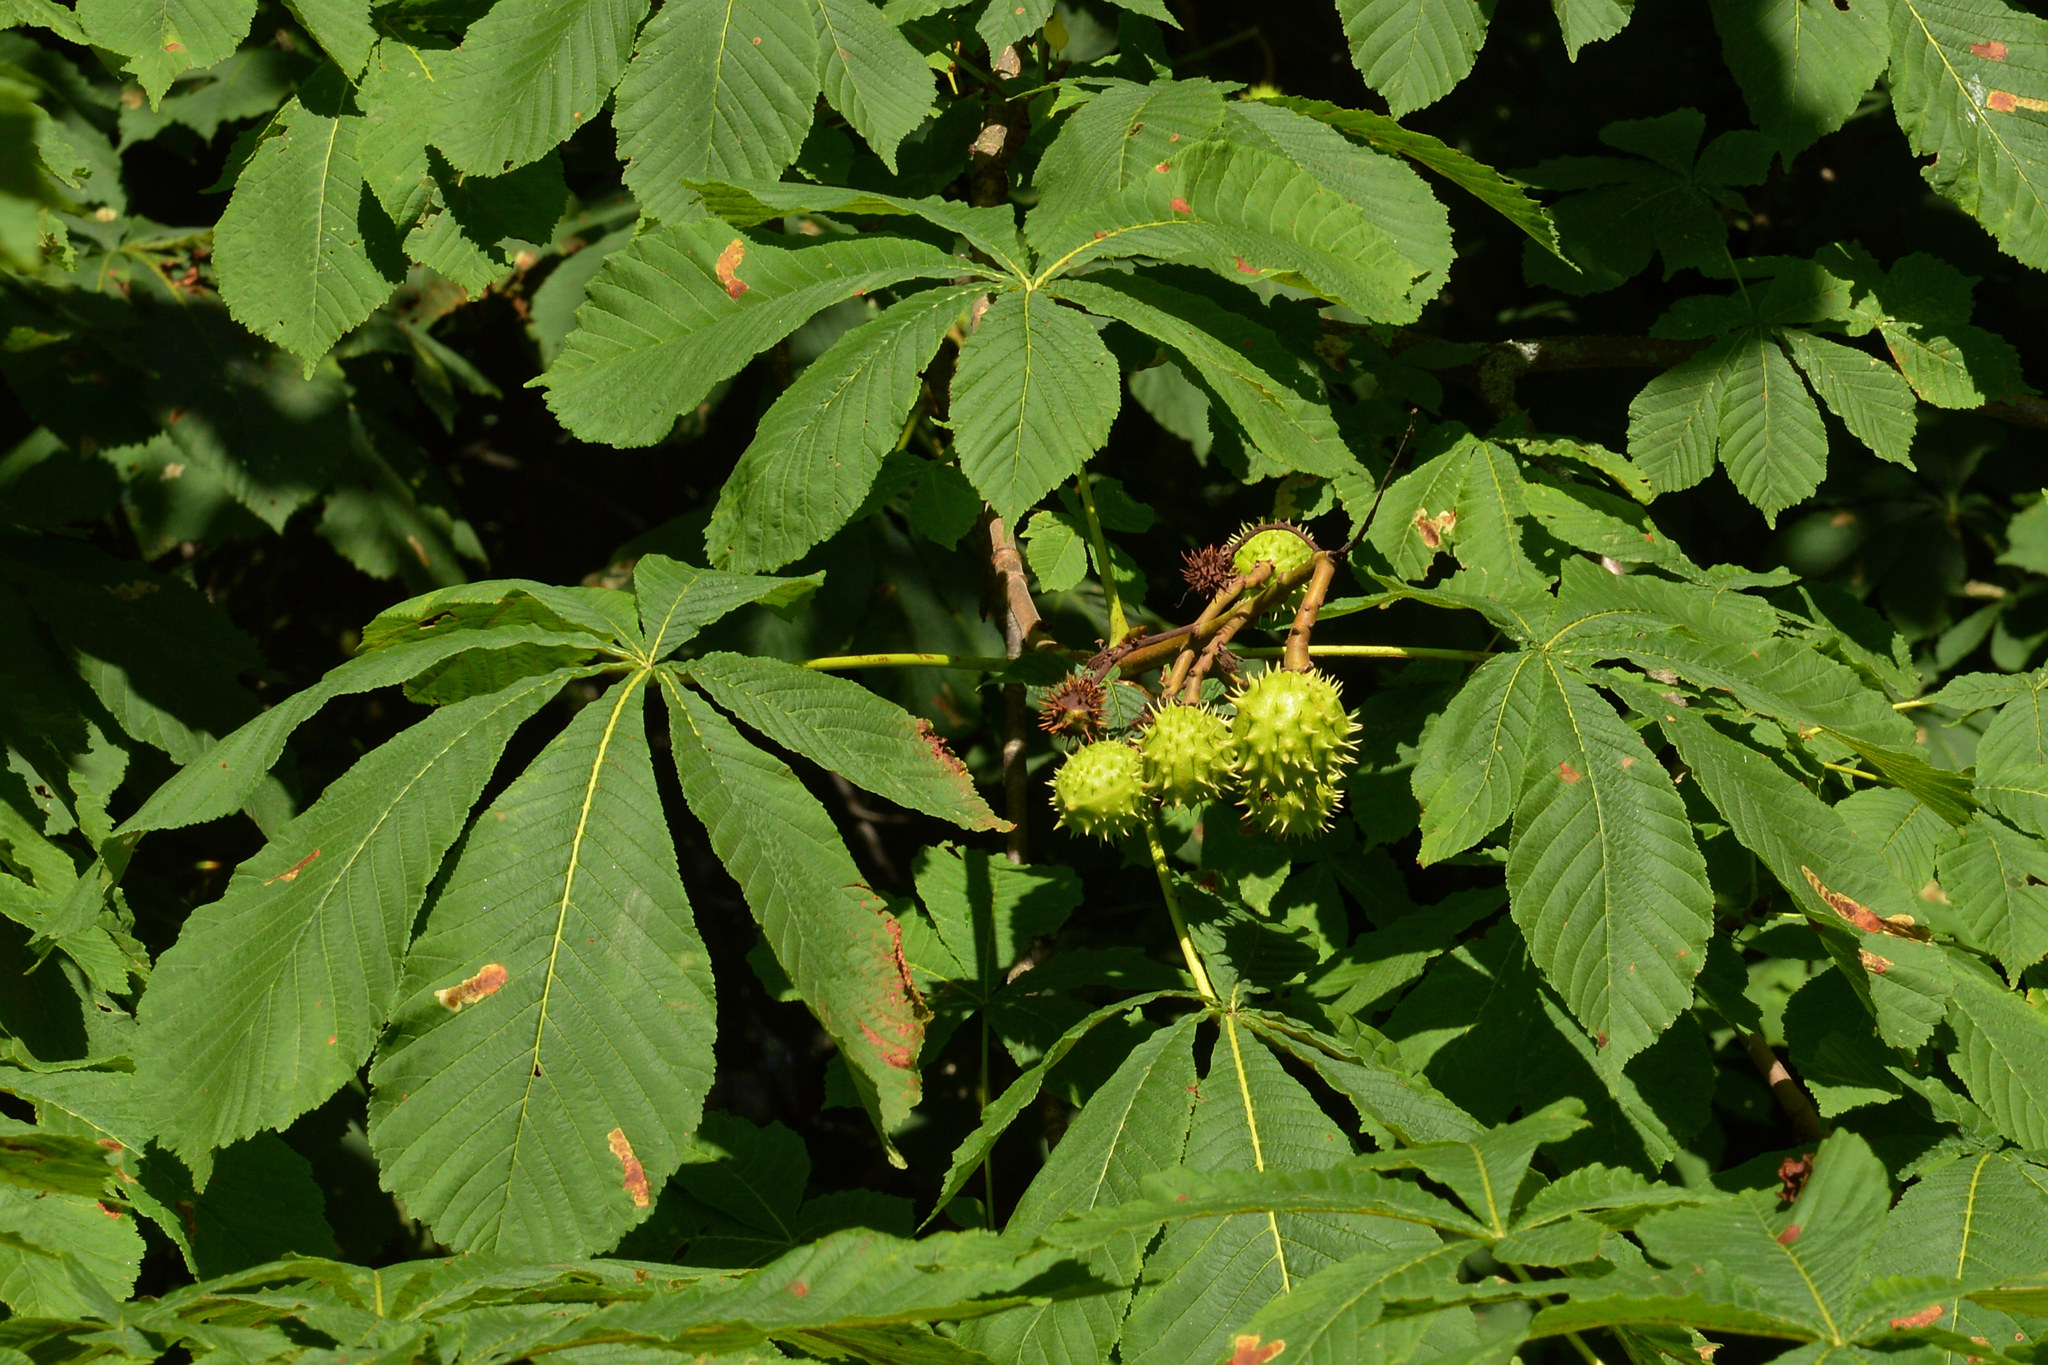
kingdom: Plantae
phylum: Tracheophyta
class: Magnoliopsida
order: Sapindales
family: Sapindaceae
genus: Aesculus
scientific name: Aesculus hippocastanum
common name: Horse-chestnut
